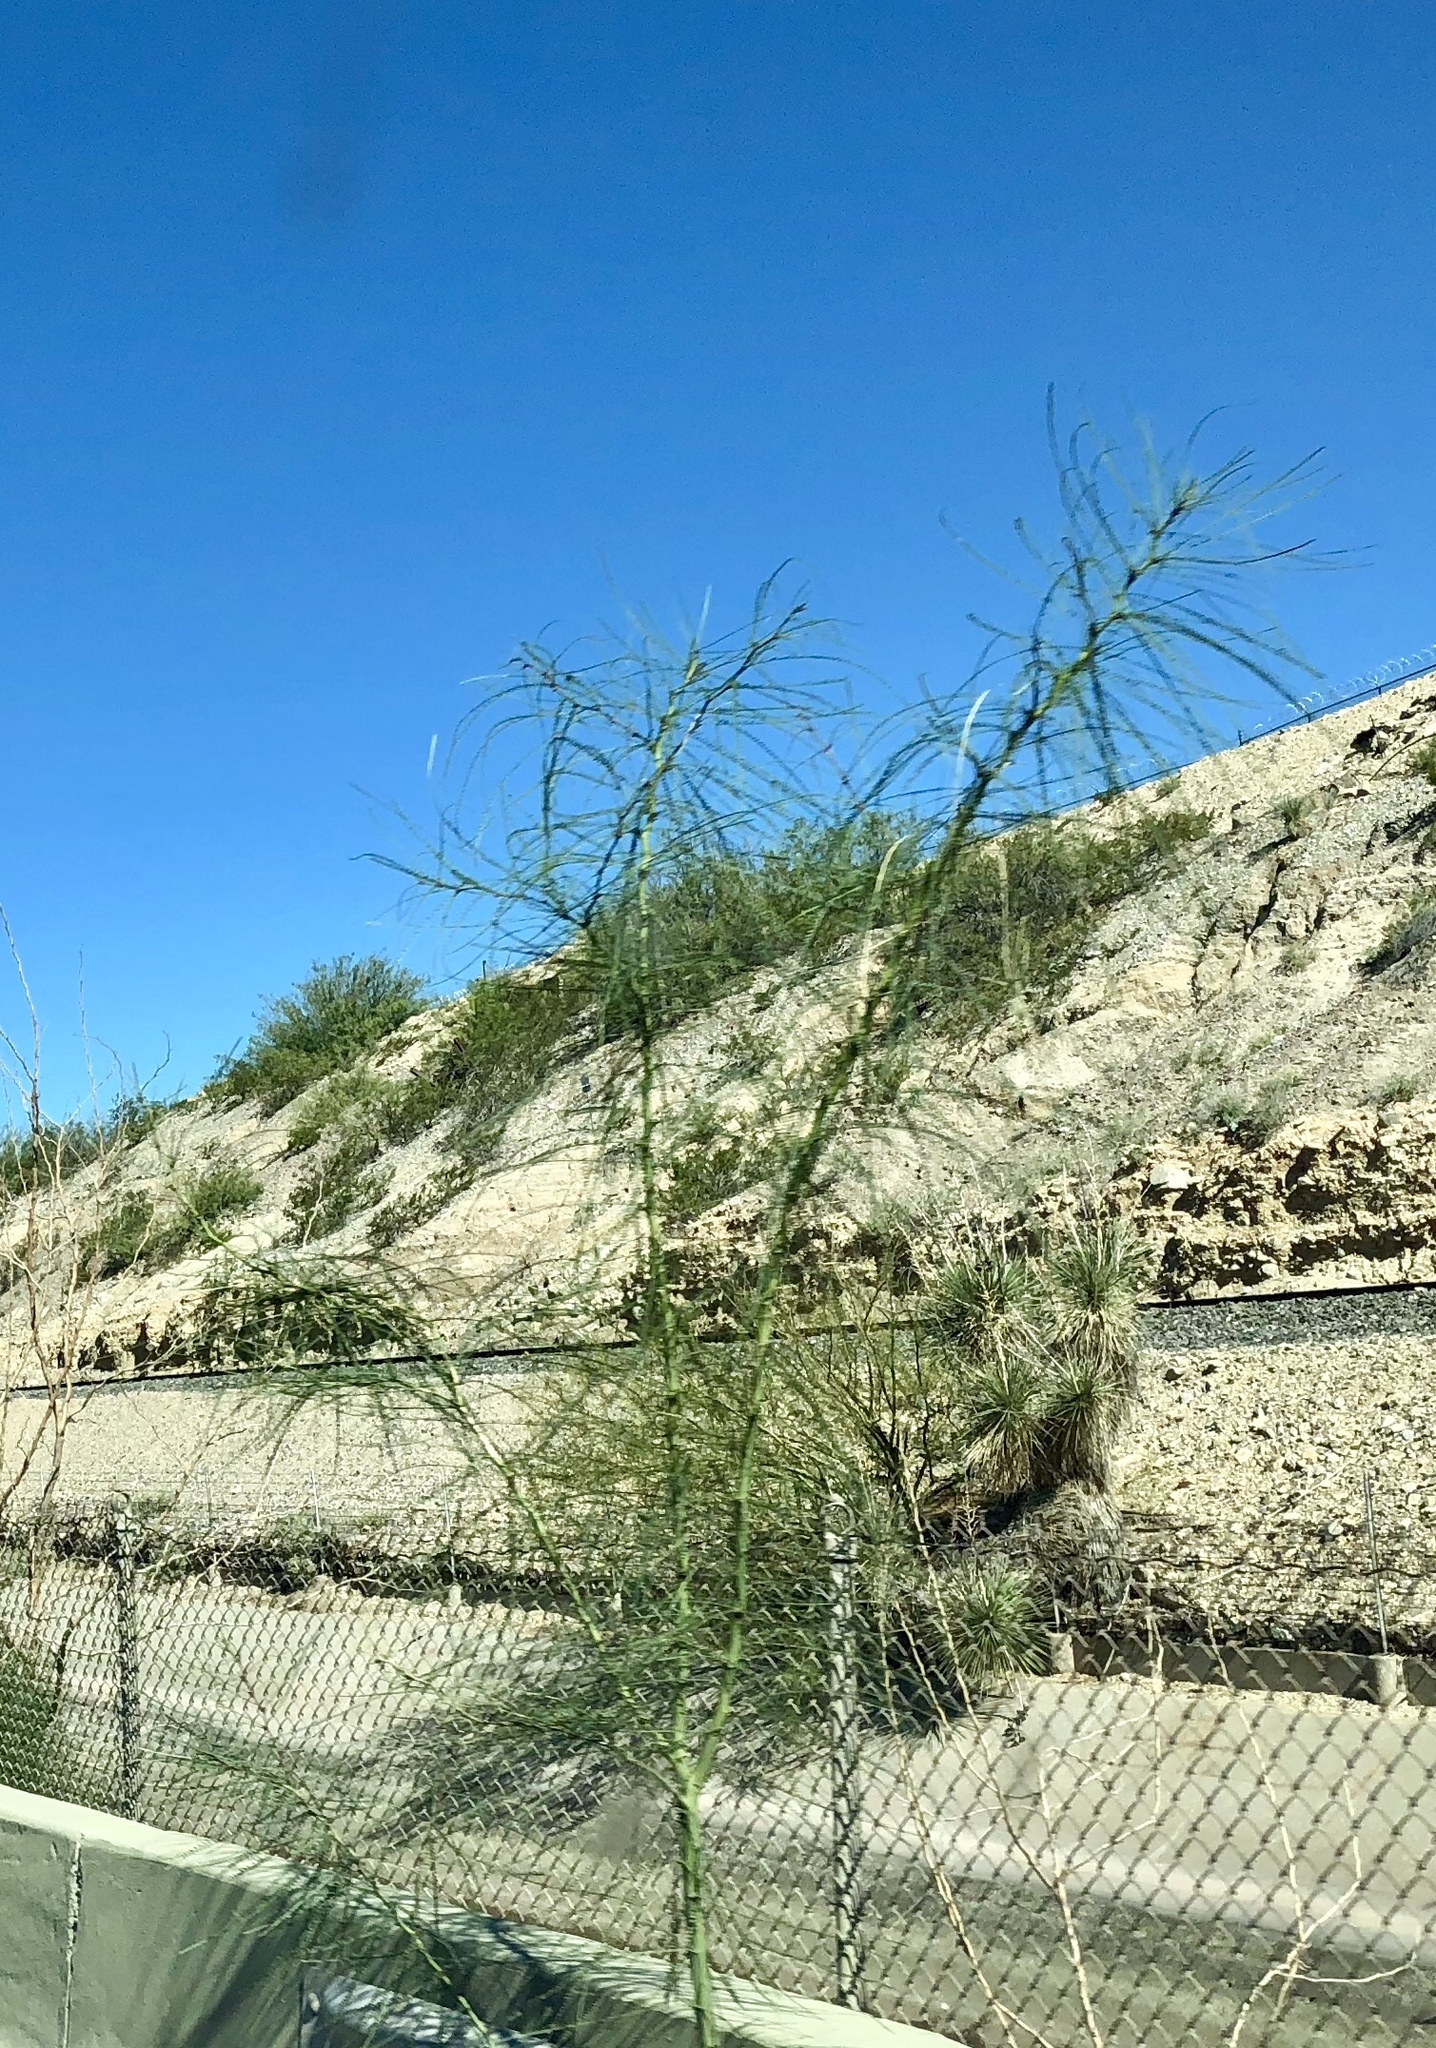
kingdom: Plantae
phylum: Tracheophyta
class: Magnoliopsida
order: Fabales
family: Fabaceae
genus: Parkinsonia
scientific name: Parkinsonia aculeata
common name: Jerusalem thorn
